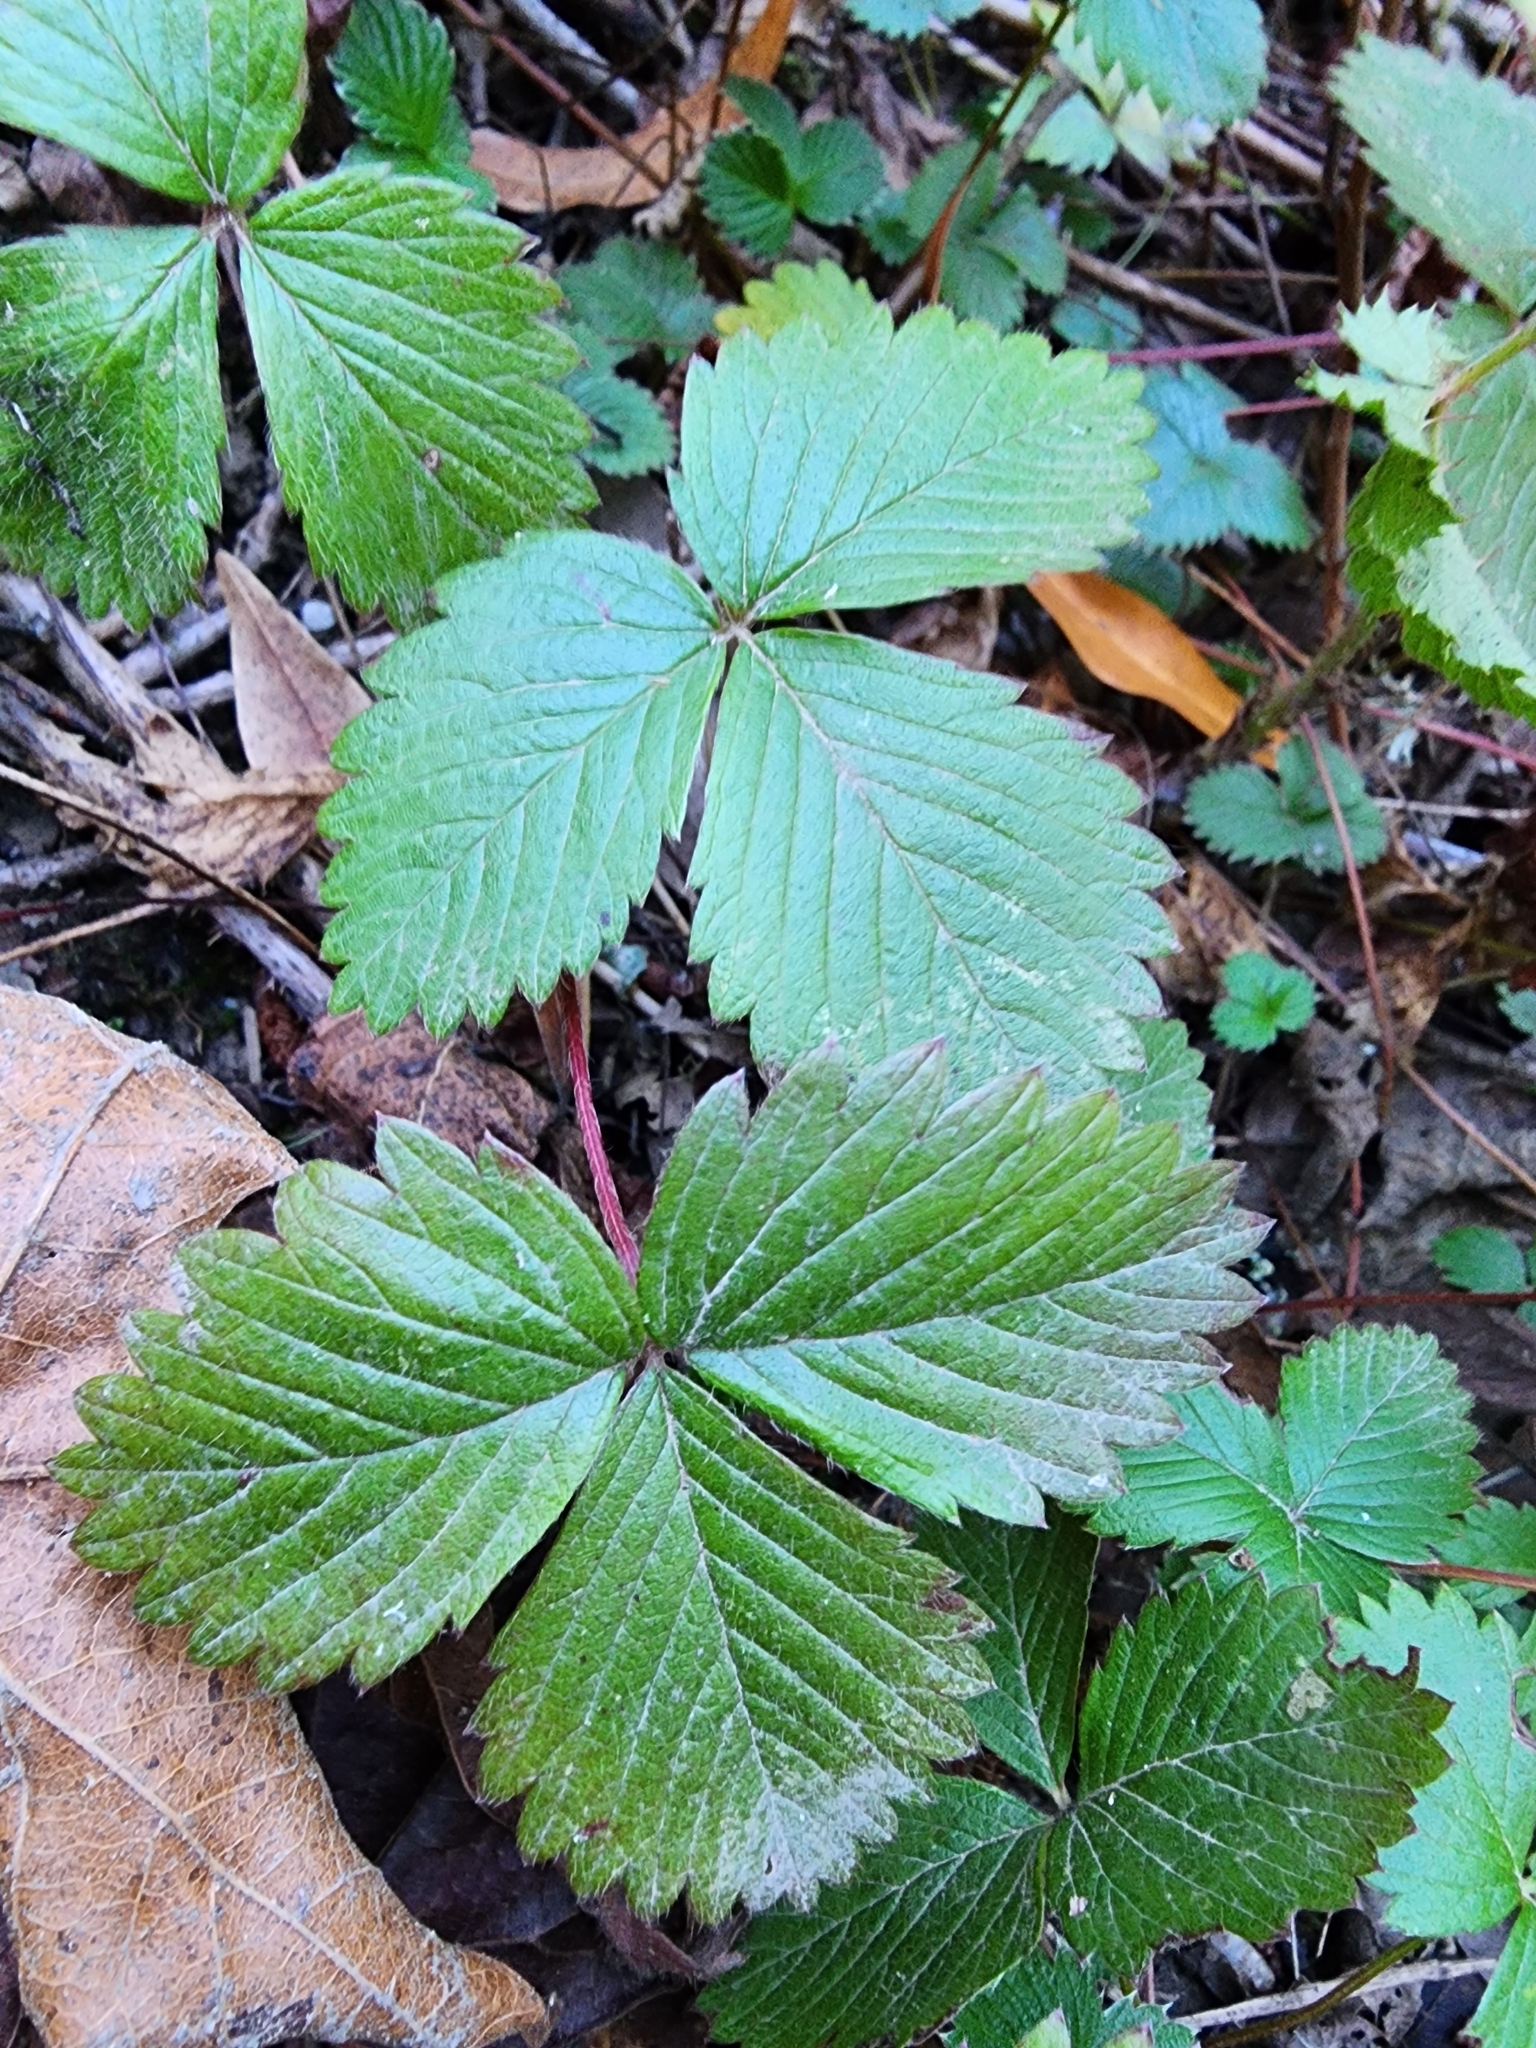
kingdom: Plantae
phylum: Tracheophyta
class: Magnoliopsida
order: Rosales
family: Rosaceae
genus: Fragaria
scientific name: Fragaria vesca
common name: Wild strawberry
